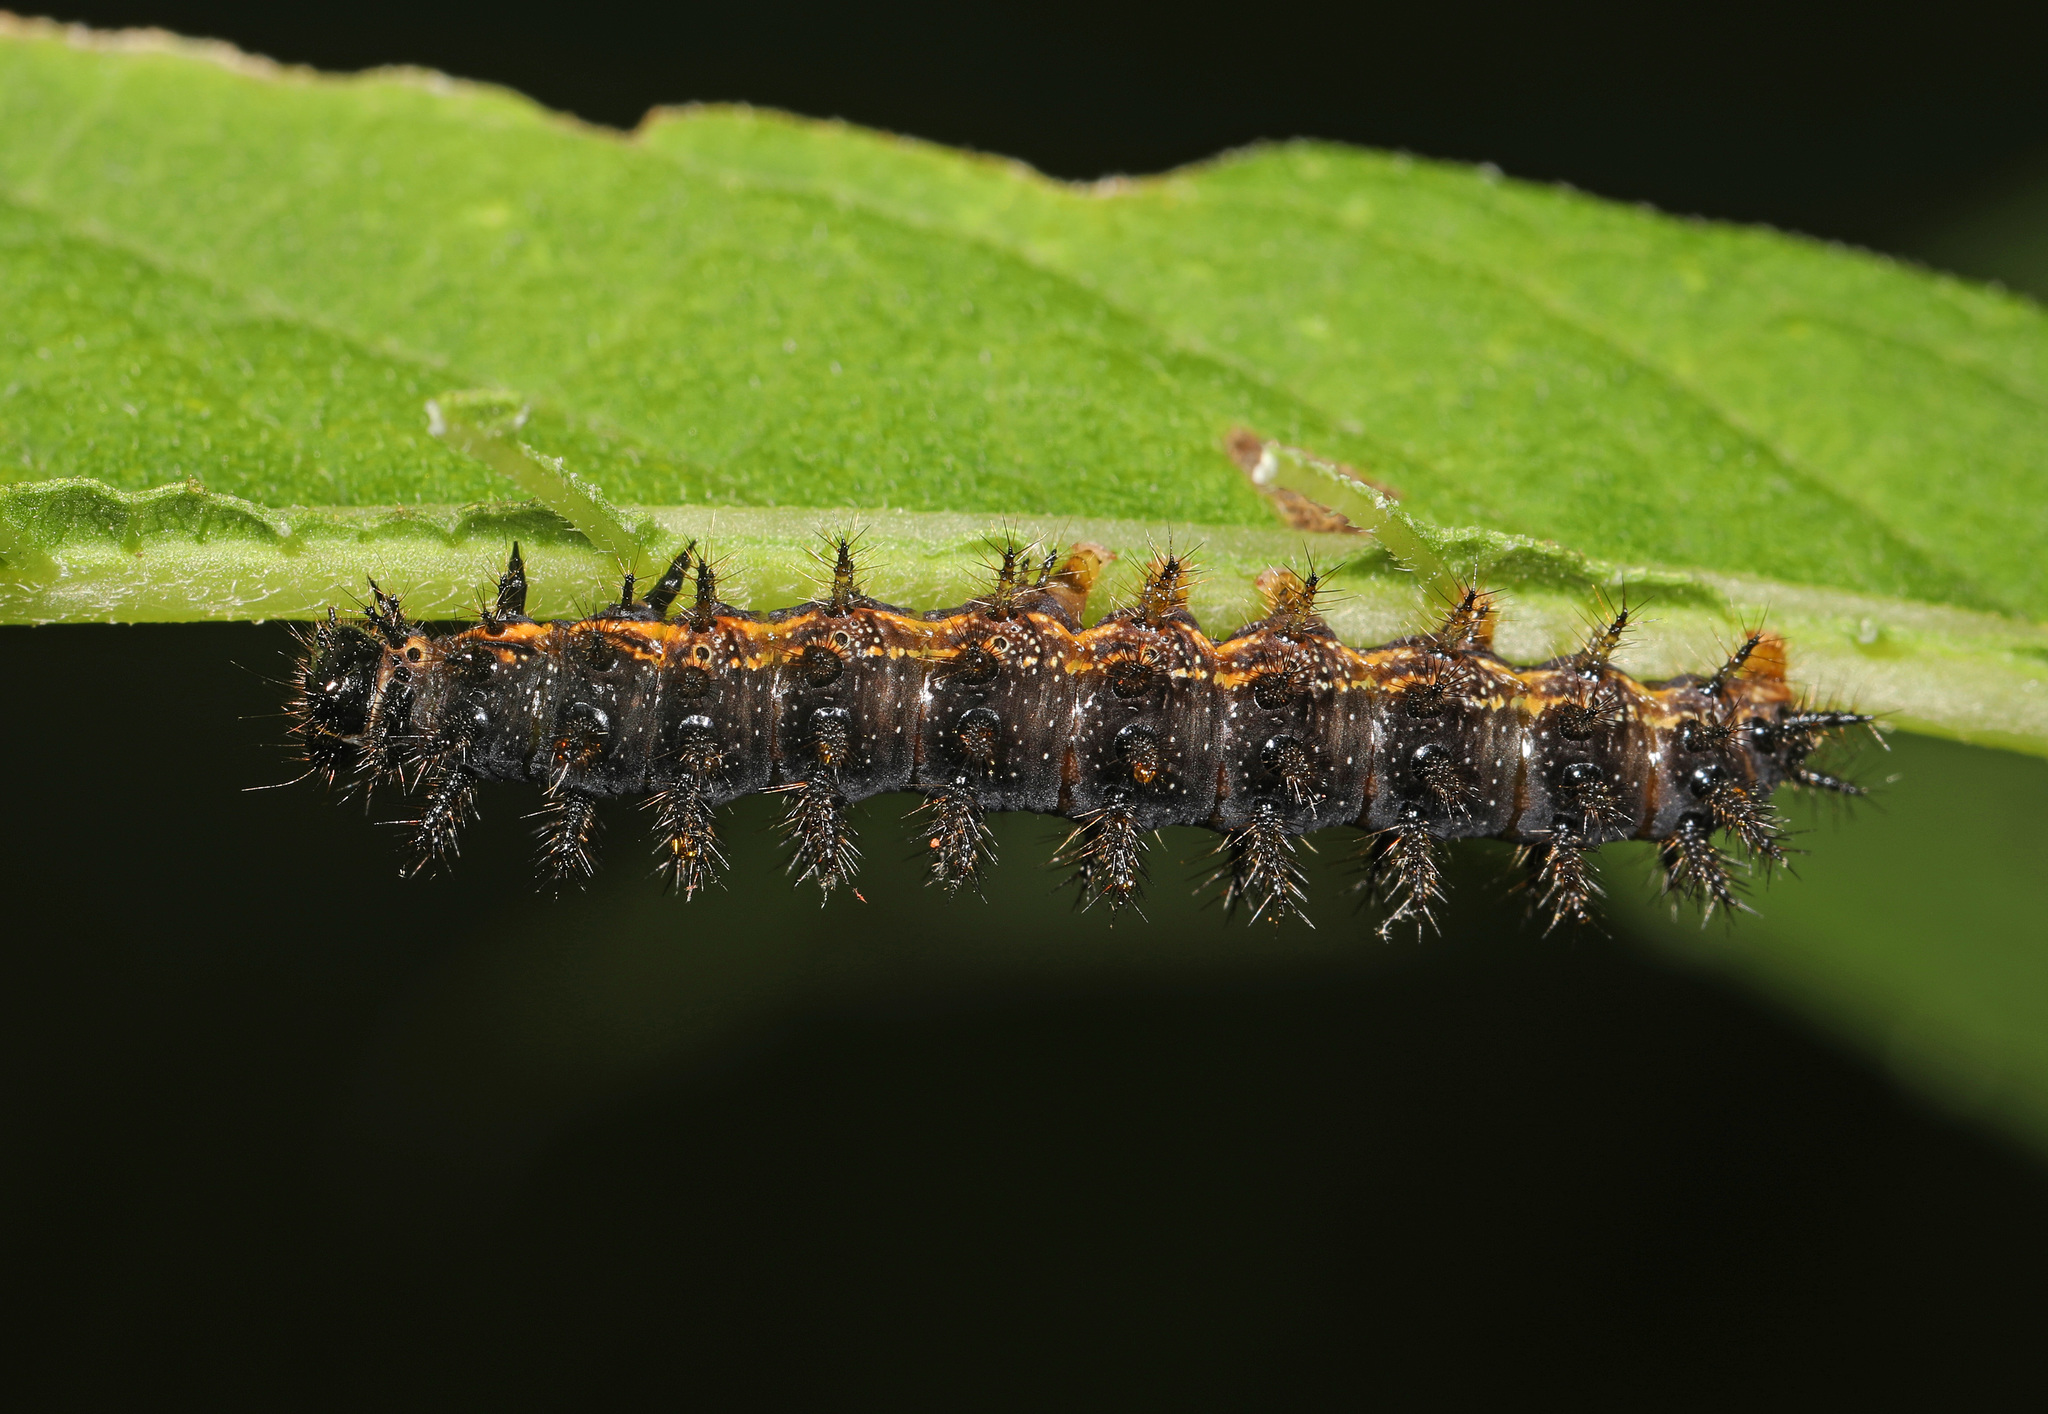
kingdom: Animalia
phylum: Arthropoda
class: Insecta
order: Lepidoptera
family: Nymphalidae
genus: Chlosyne
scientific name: Chlosyne nycteis
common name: Silvery checkerspot
